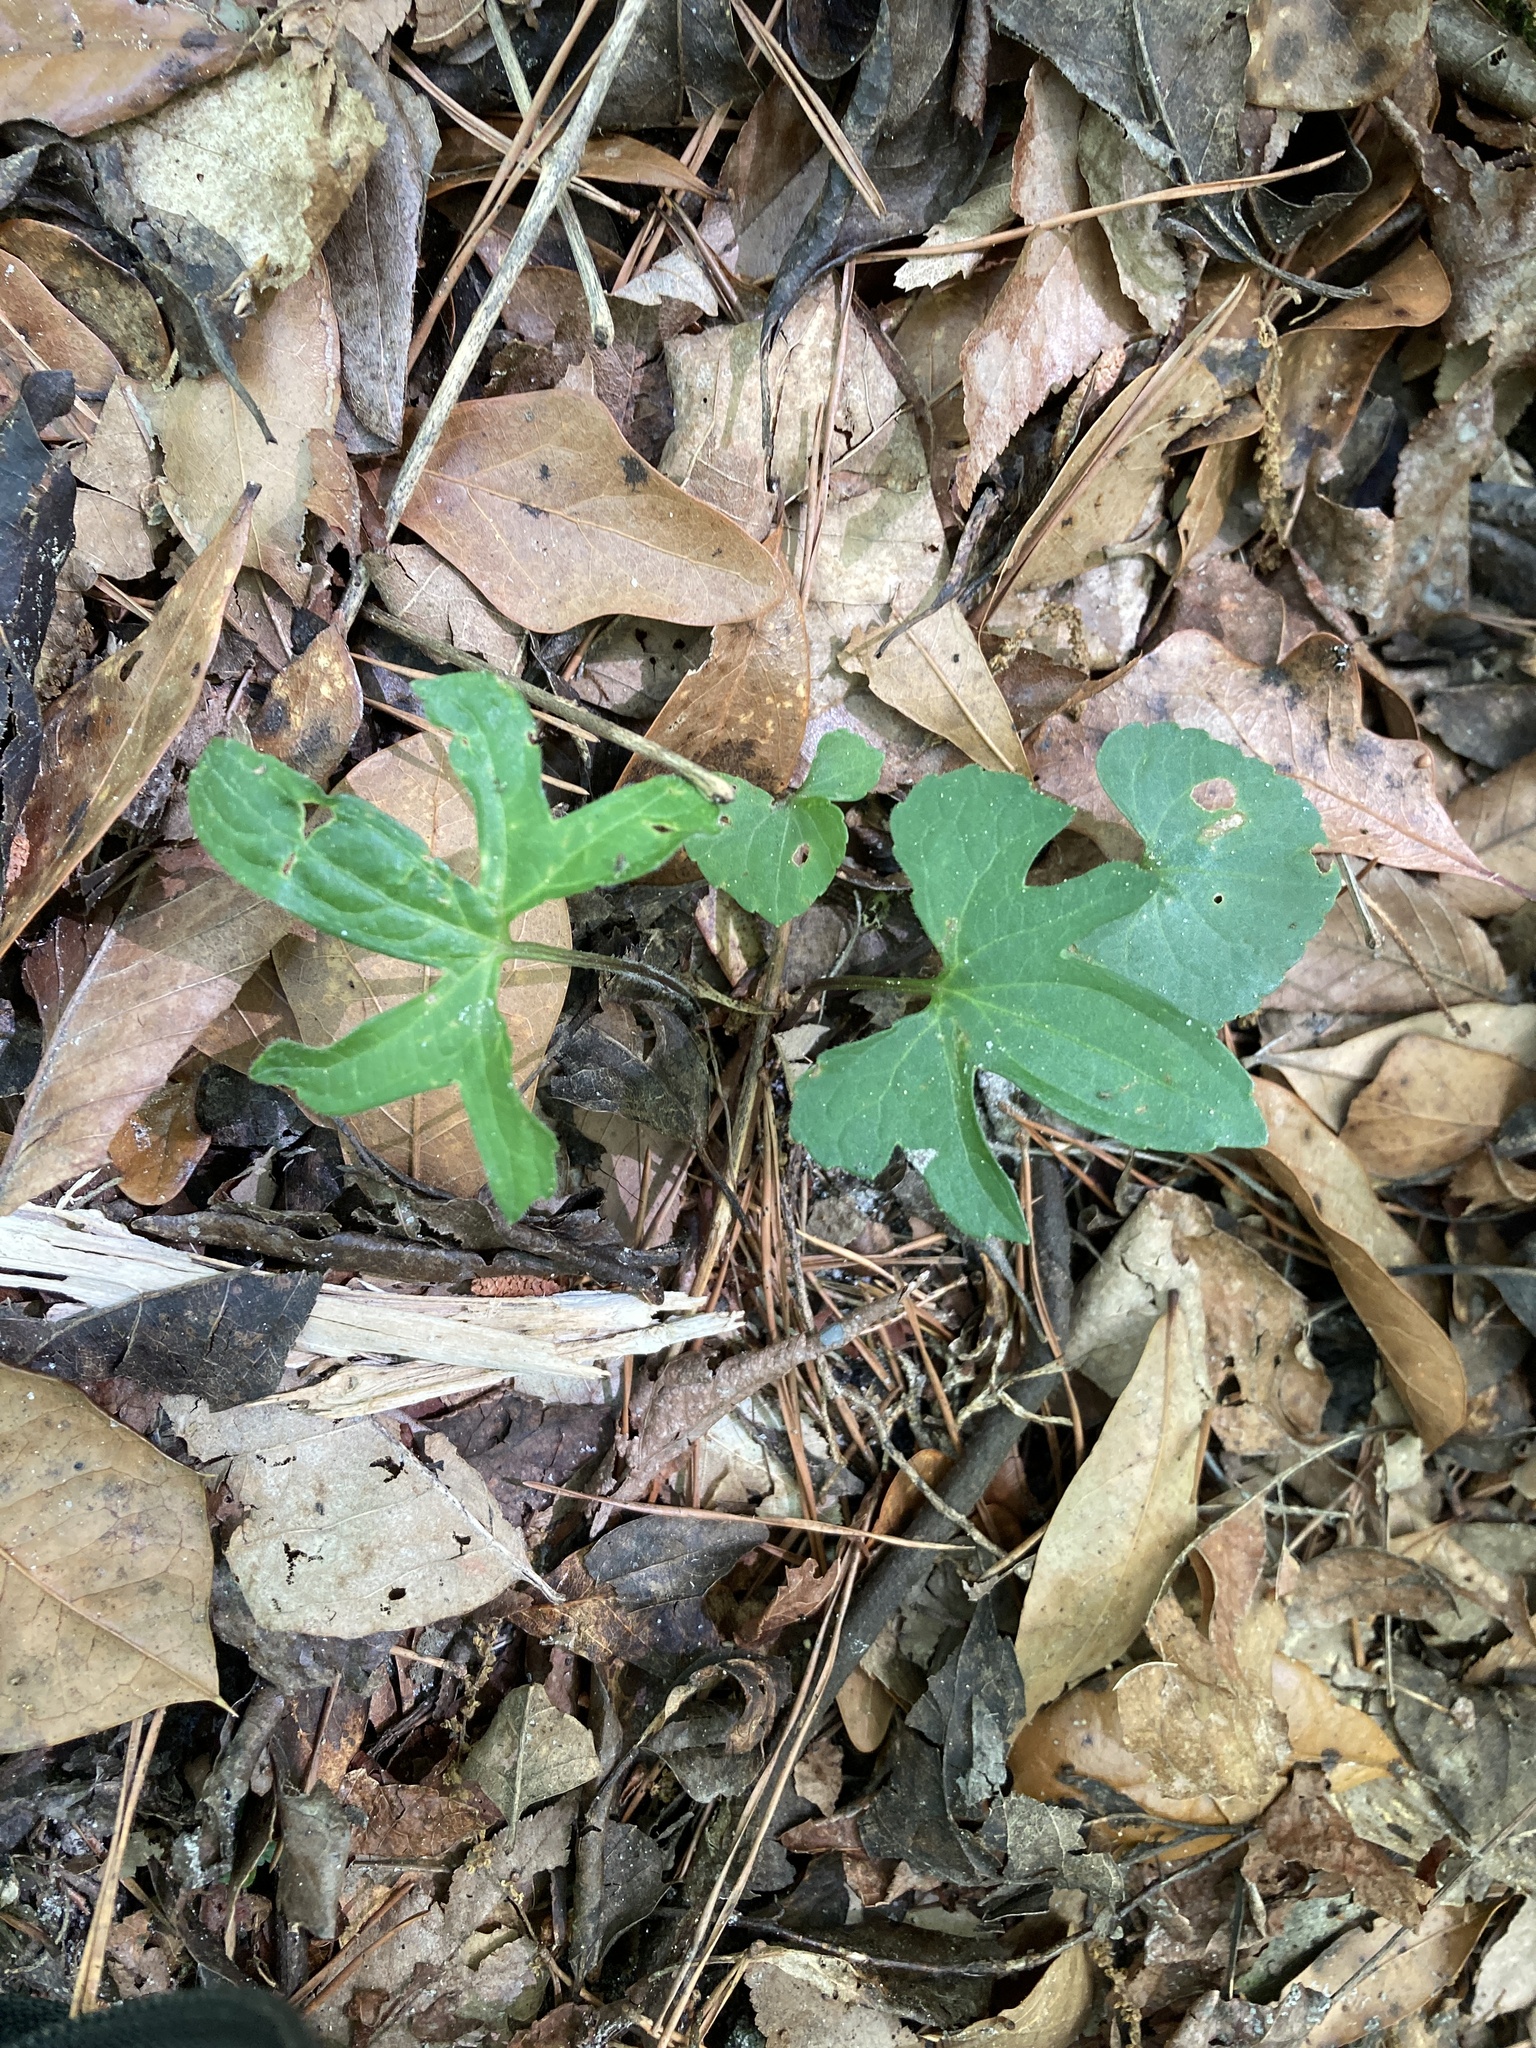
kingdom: Plantae
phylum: Tracheophyta
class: Magnoliopsida
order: Malpighiales
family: Violaceae
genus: Viola
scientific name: Viola palmata
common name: Early blue violet
